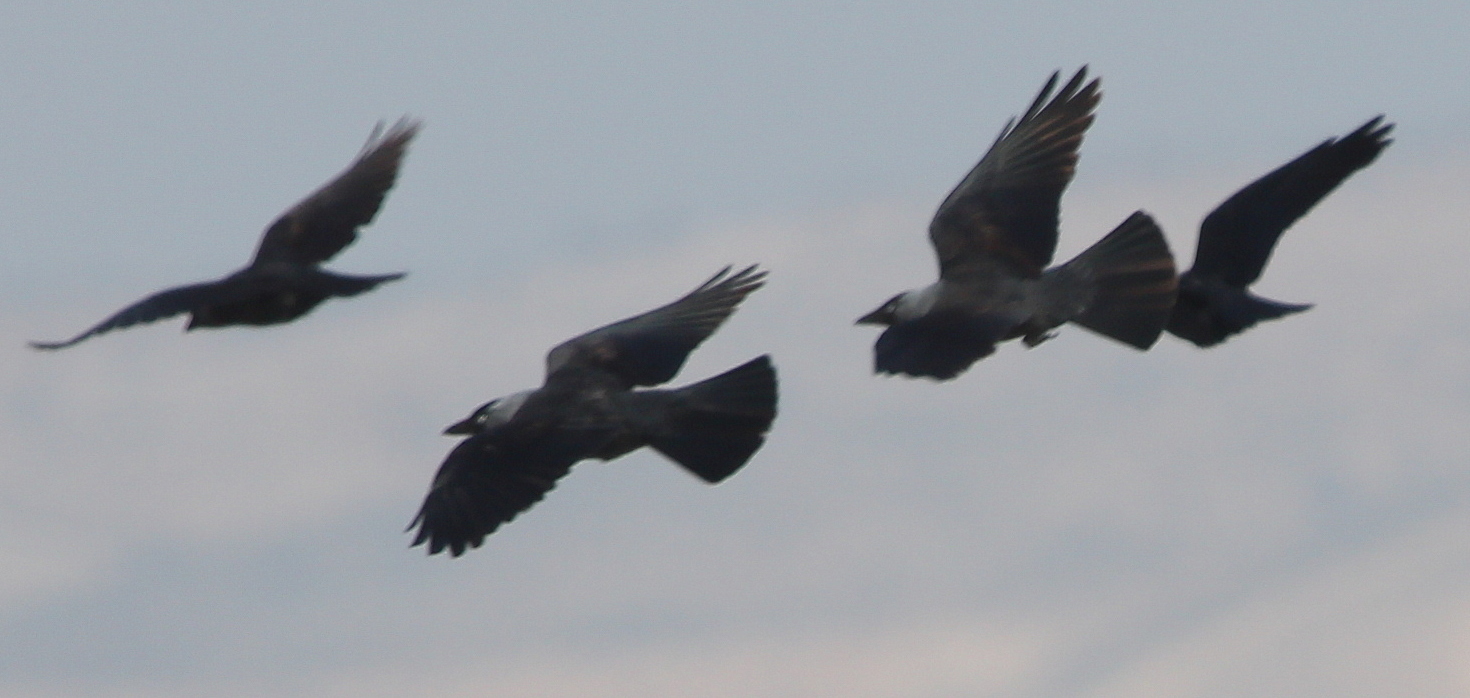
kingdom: Animalia
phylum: Chordata
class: Aves
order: Passeriformes
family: Corvidae
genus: Coloeus
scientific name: Coloeus monedula
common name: Western jackdaw
